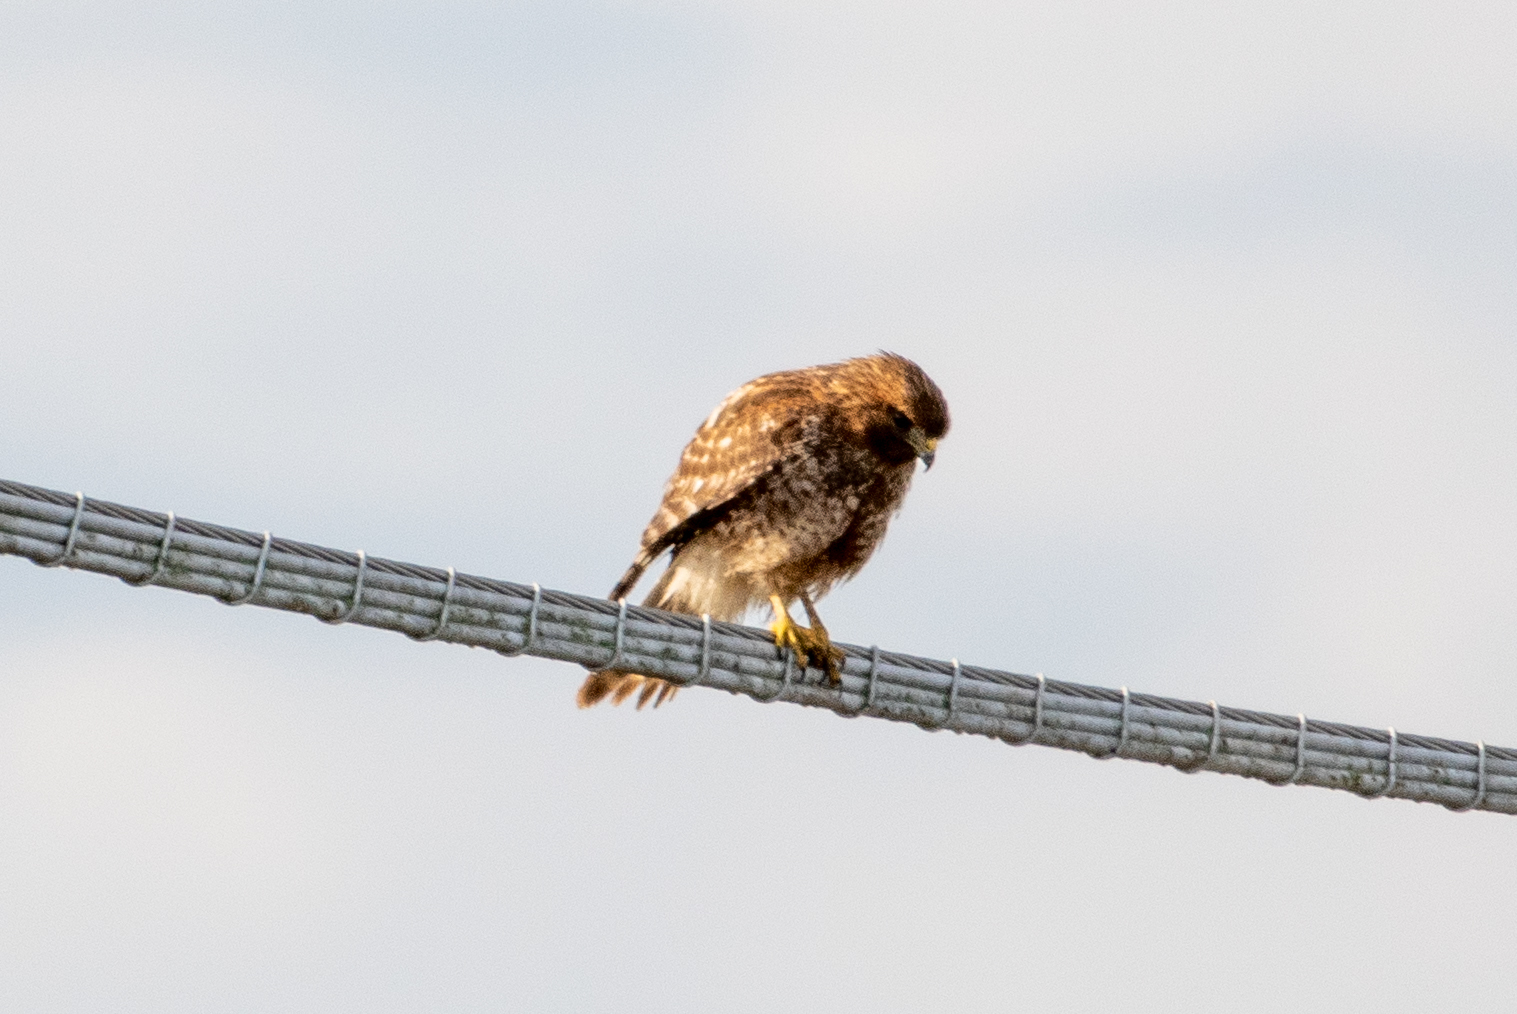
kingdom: Animalia
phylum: Chordata
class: Aves
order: Accipitriformes
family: Accipitridae
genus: Buteo
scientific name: Buteo lineatus
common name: Red-shouldered hawk
